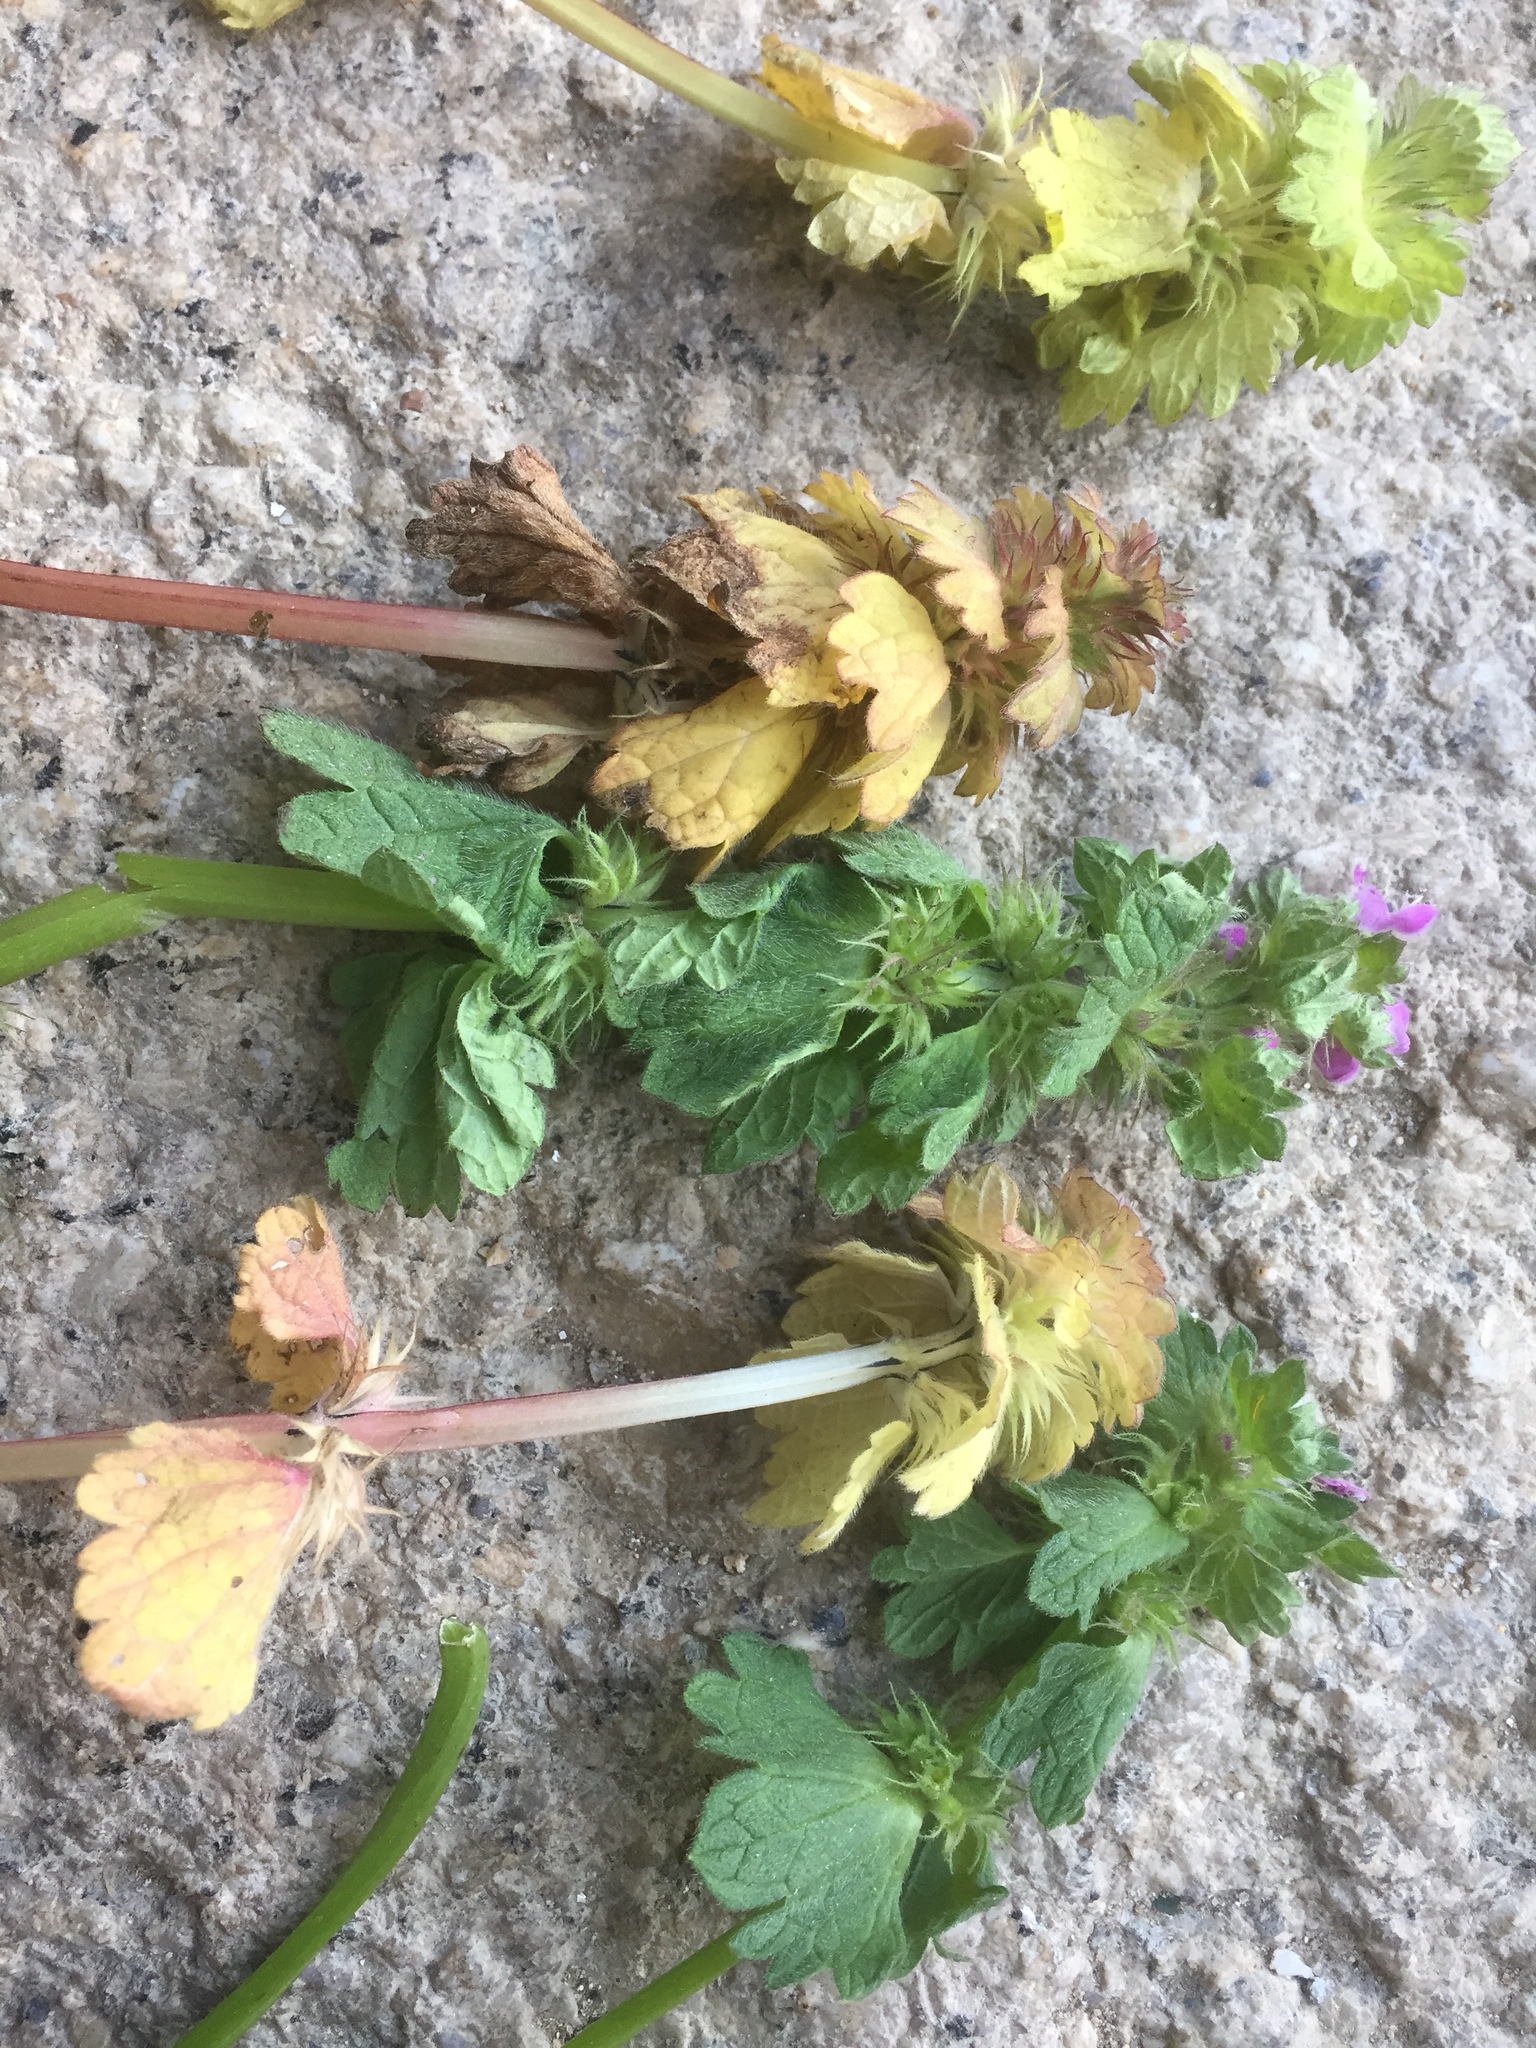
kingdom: Plantae
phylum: Tracheophyta
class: Magnoliopsida
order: Lamiales
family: Lamiaceae
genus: Lamium
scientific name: Lamium coutinhoi
